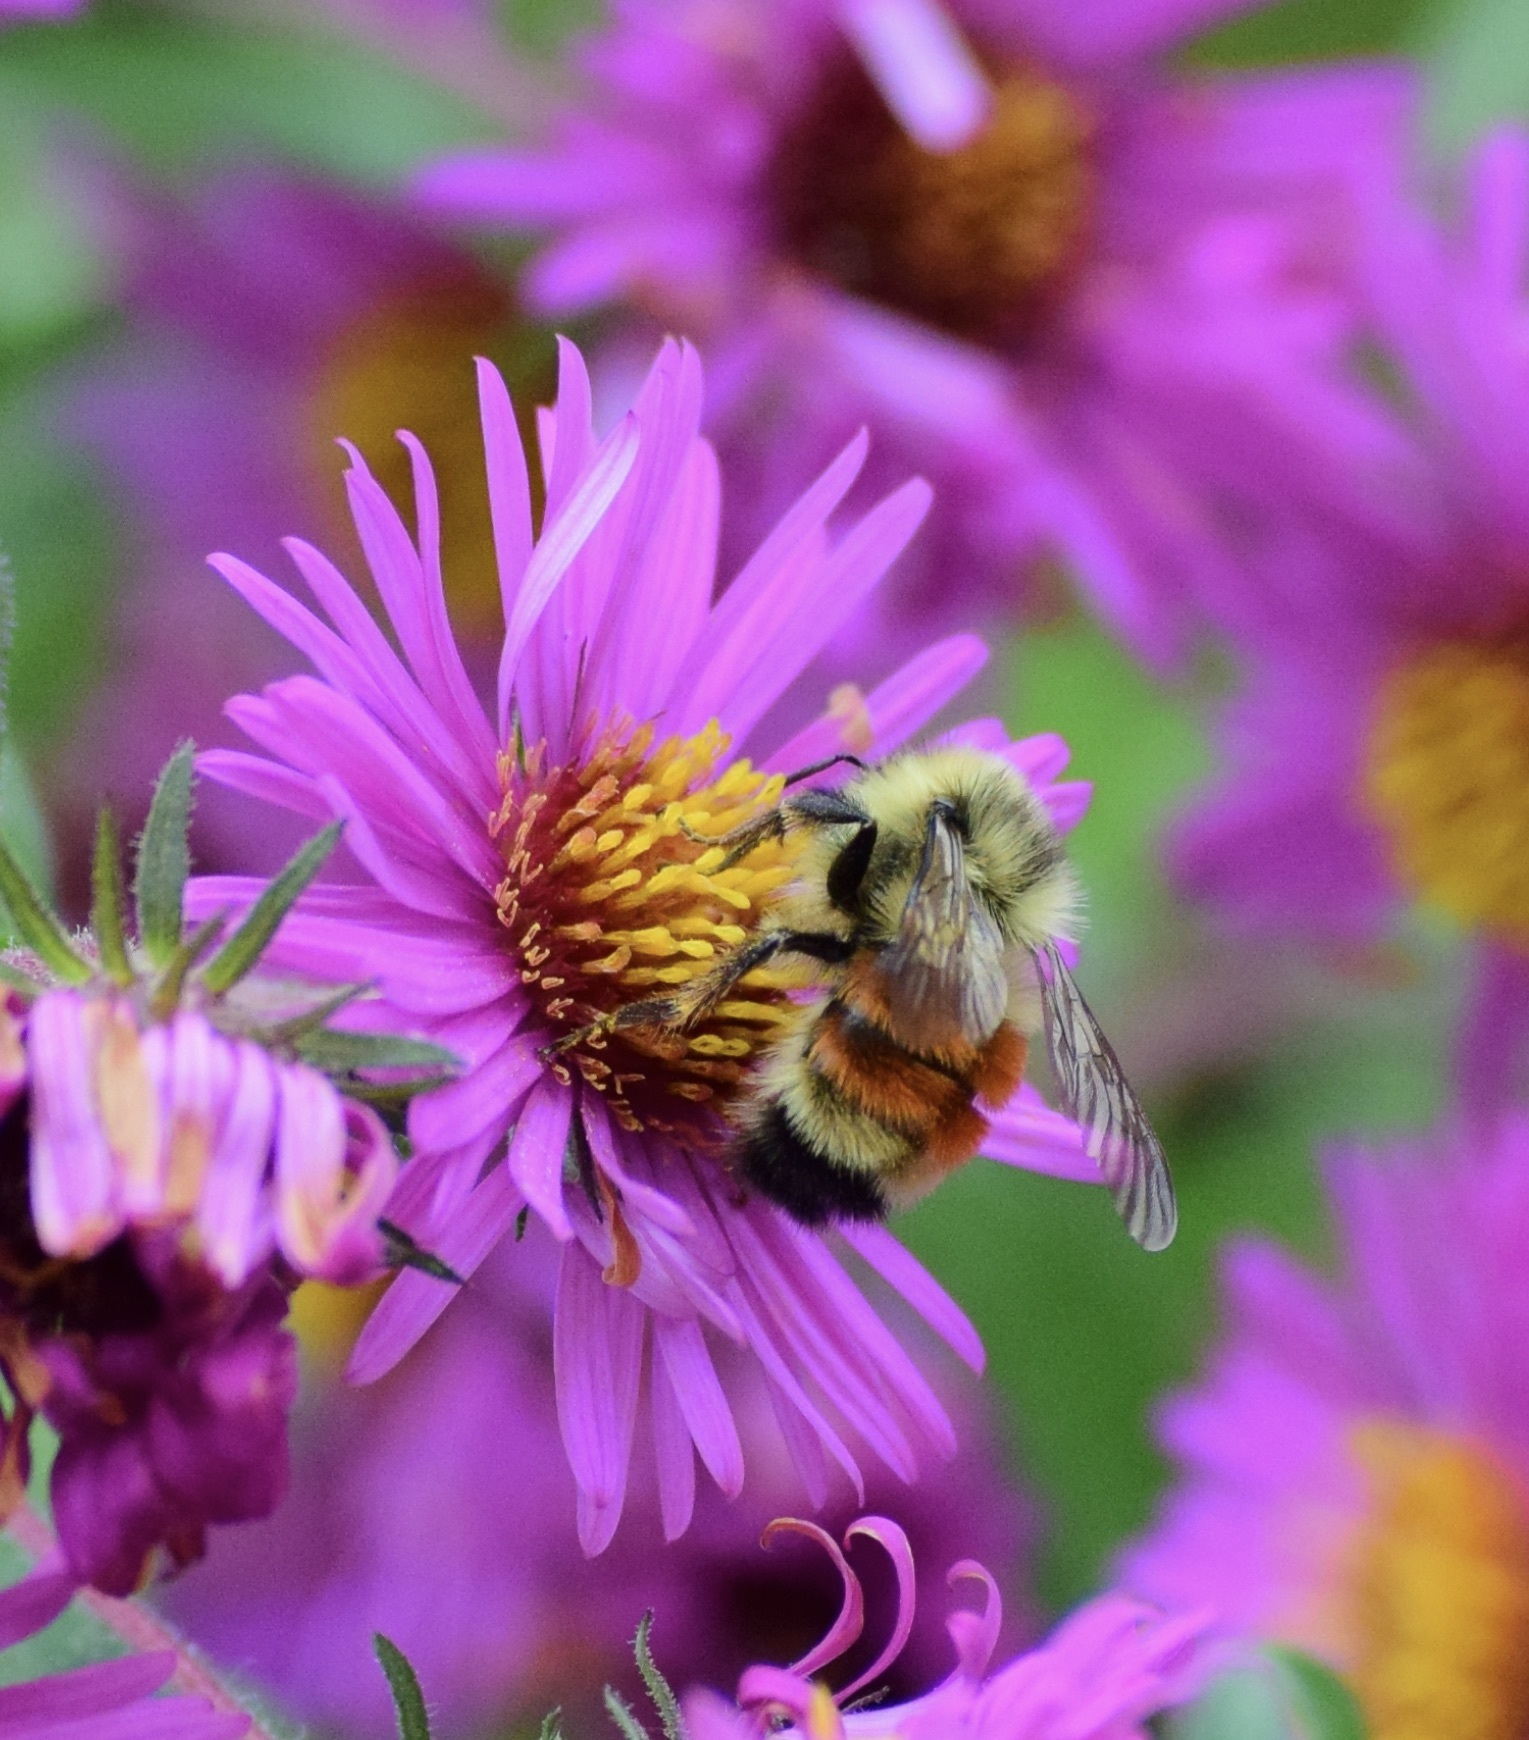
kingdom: Animalia
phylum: Arthropoda
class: Insecta
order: Hymenoptera
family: Apidae
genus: Bombus
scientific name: Bombus ternarius
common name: Tri-colored bumble bee
